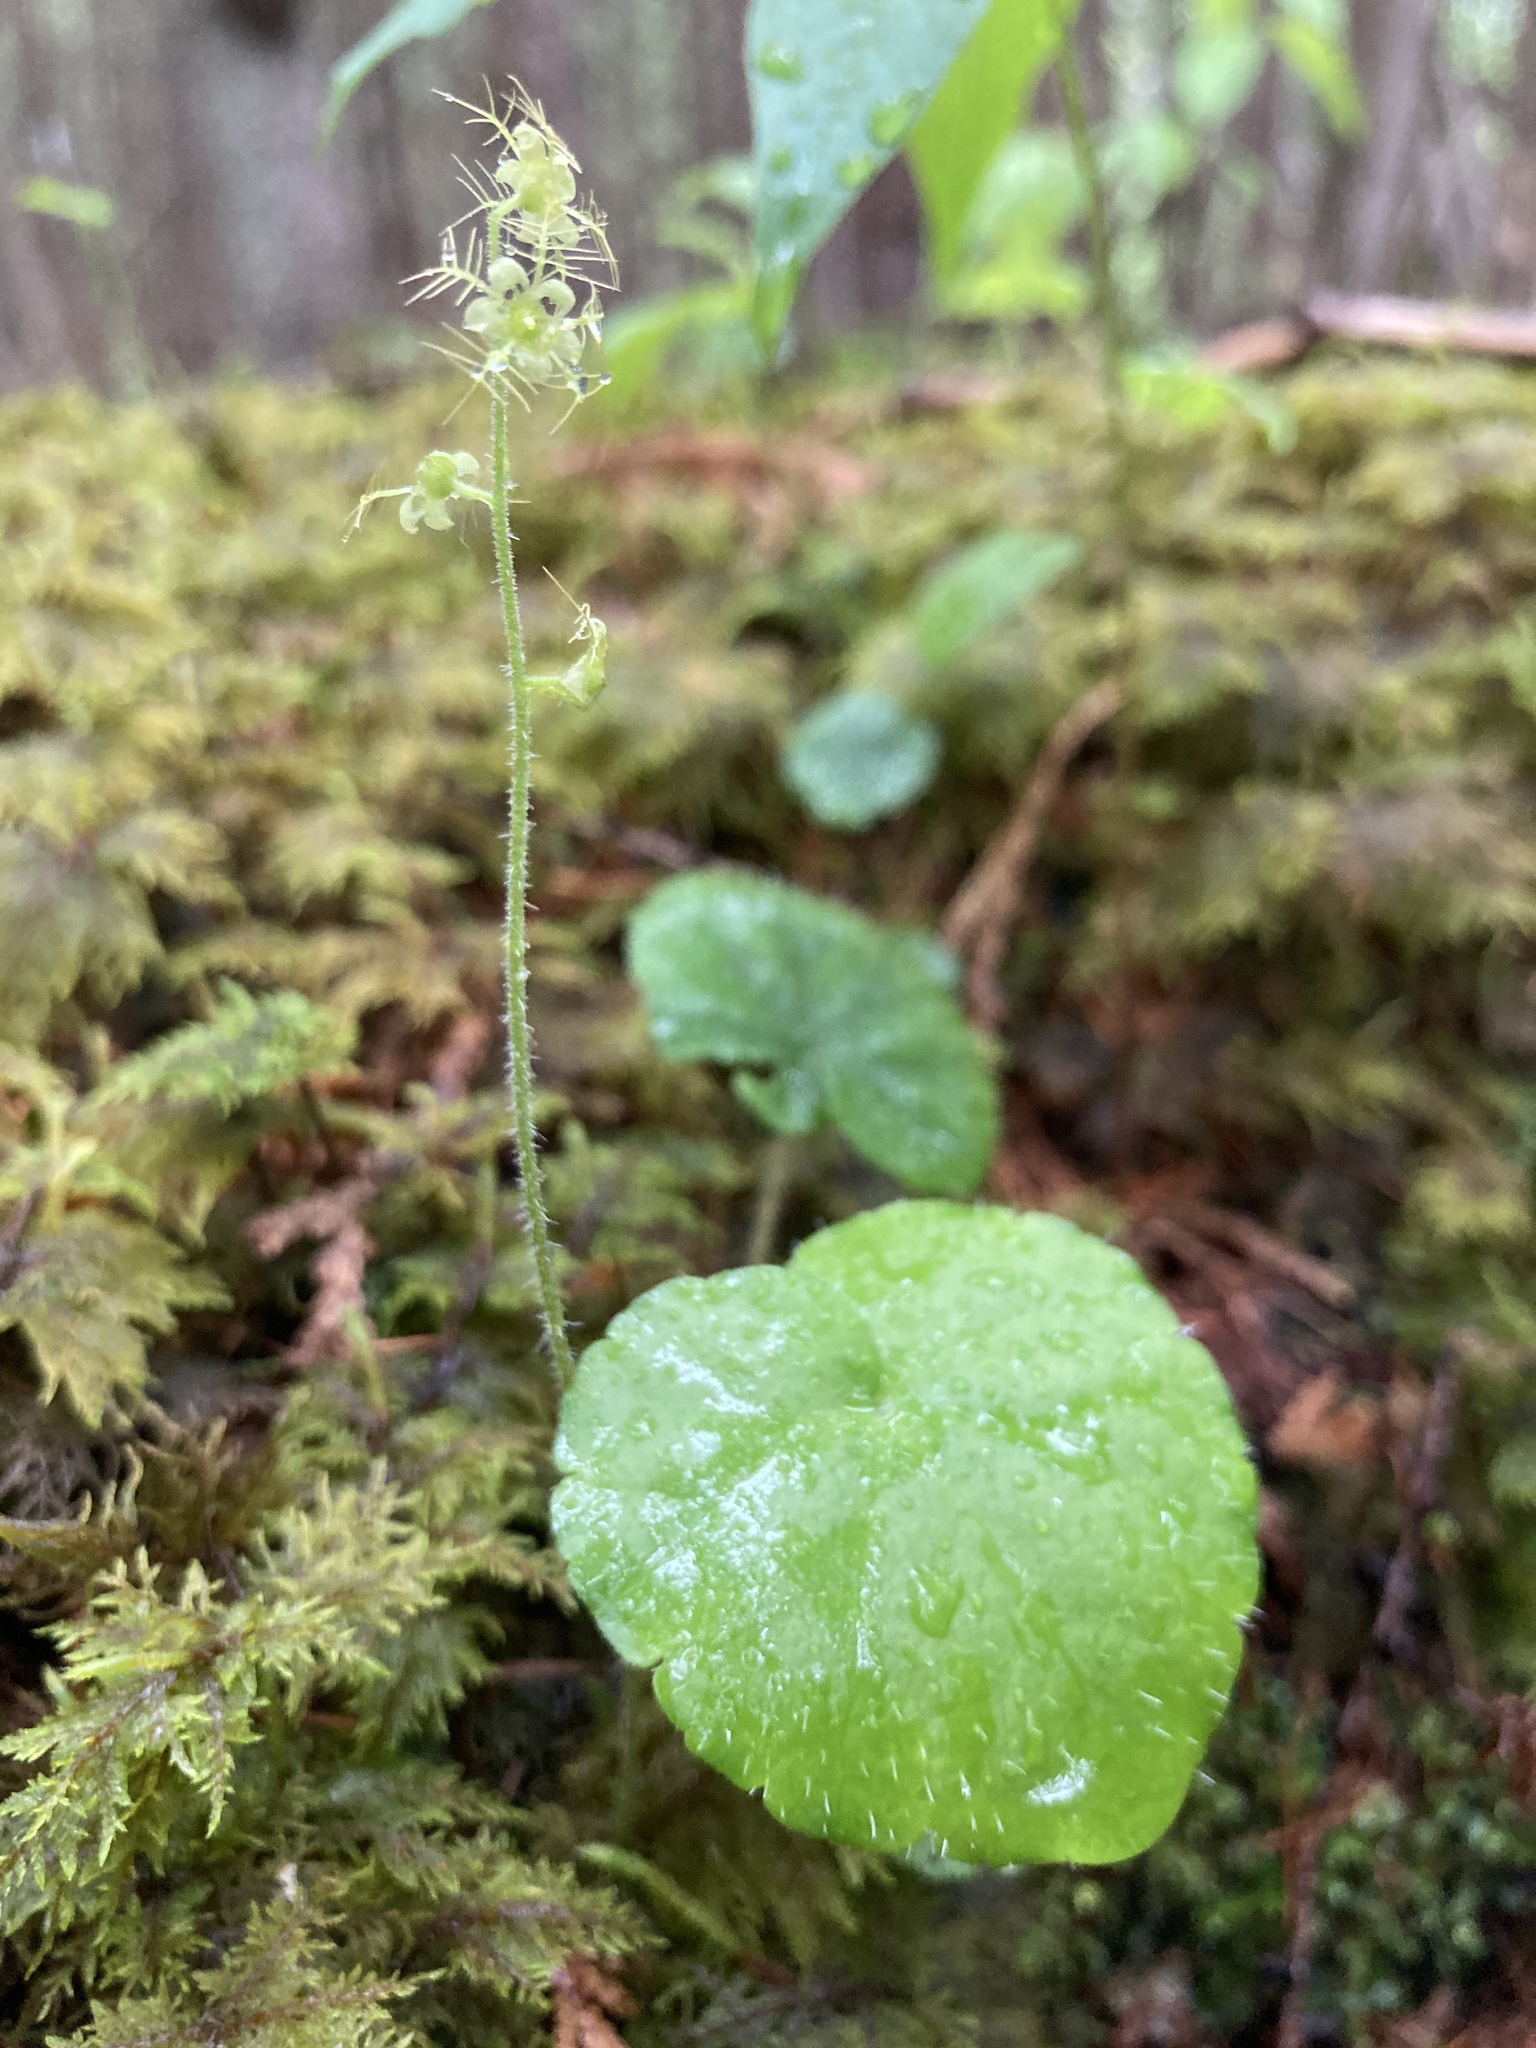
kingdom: Plantae
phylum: Tracheophyta
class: Magnoliopsida
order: Saxifragales
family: Saxifragaceae
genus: Mitella
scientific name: Mitella nuda
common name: Bare-stemmed bishop's-cap
